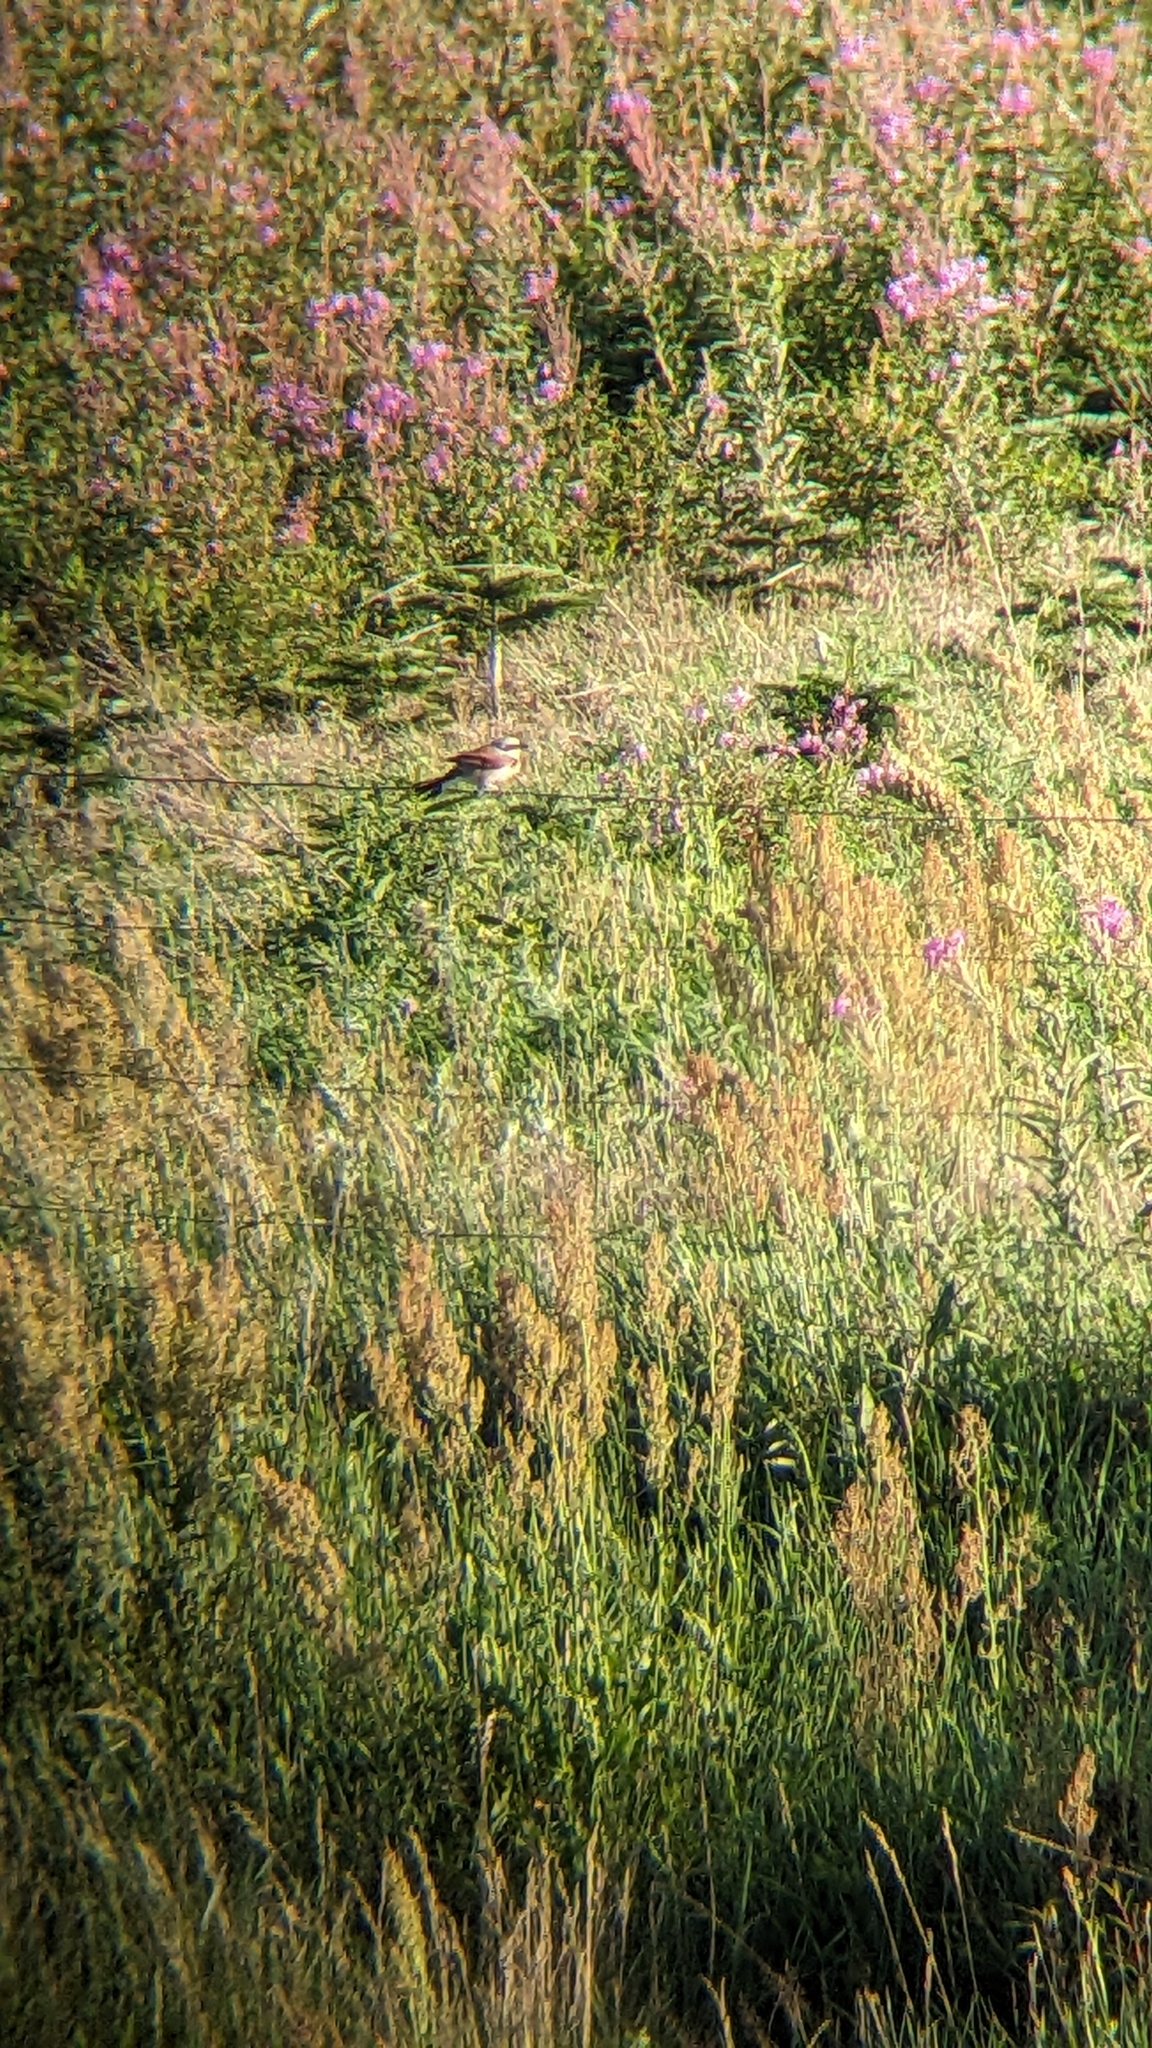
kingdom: Animalia
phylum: Chordata
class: Aves
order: Passeriformes
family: Laniidae
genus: Lanius
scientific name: Lanius collurio
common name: Red-backed shrike
